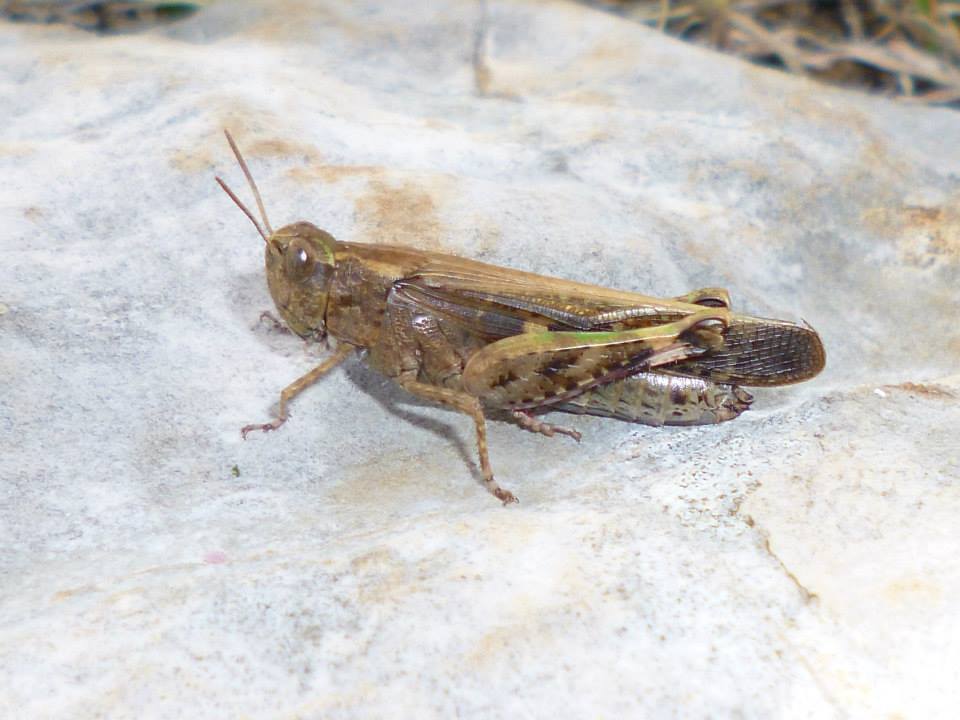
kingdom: Animalia
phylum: Arthropoda
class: Insecta
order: Orthoptera
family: Acrididae
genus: Aiolopus
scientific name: Aiolopus strepens
